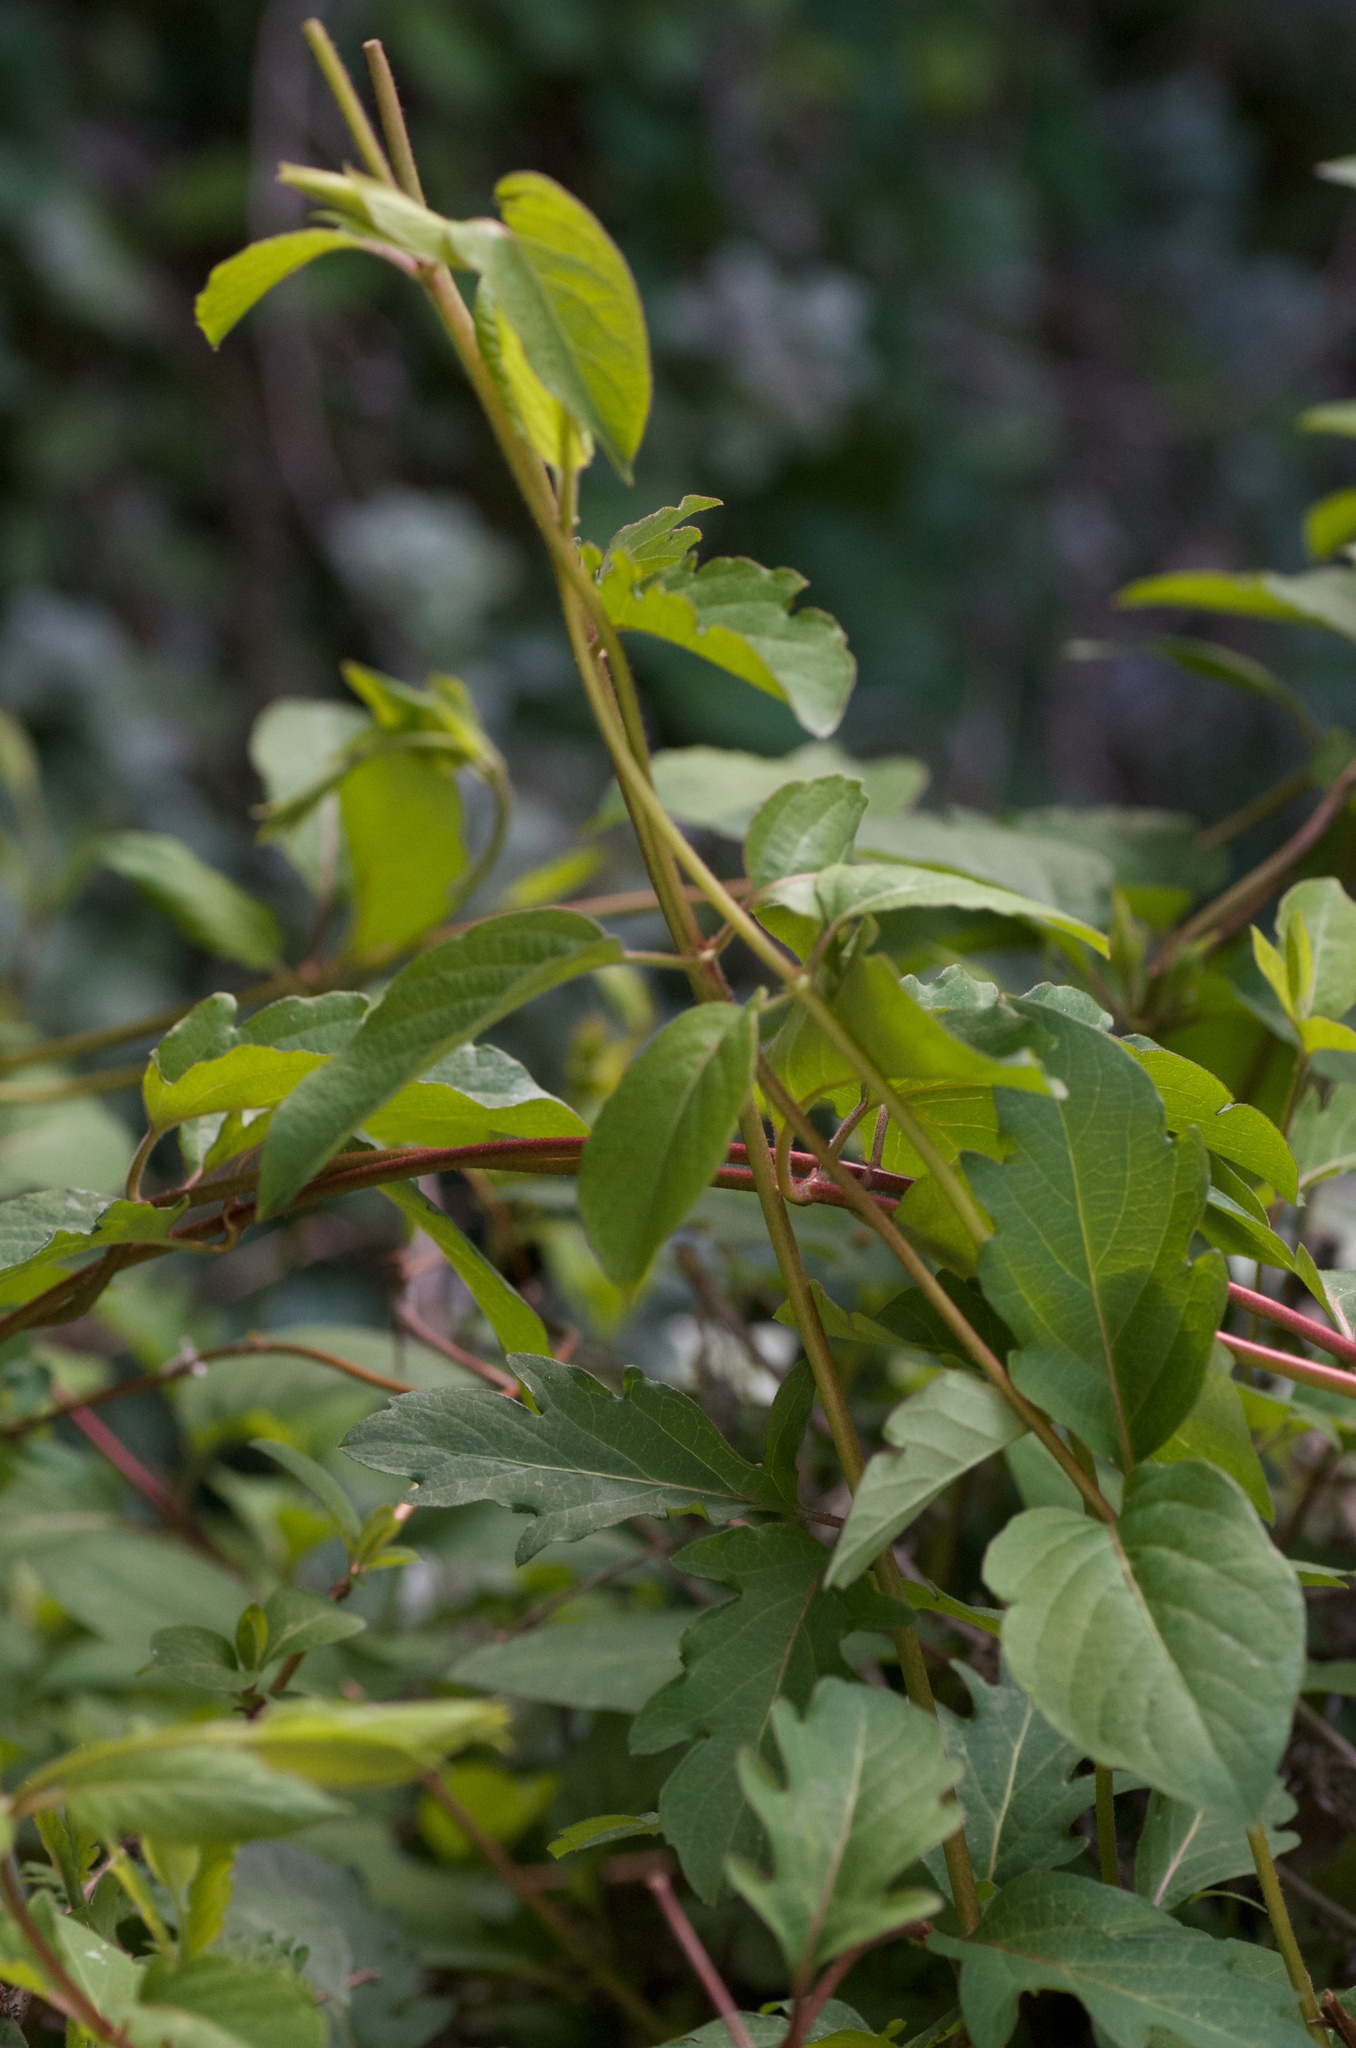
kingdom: Plantae
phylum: Tracheophyta
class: Magnoliopsida
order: Dipsacales
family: Caprifoliaceae
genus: Lonicera
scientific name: Lonicera japonica
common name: Japanese honeysuckle
